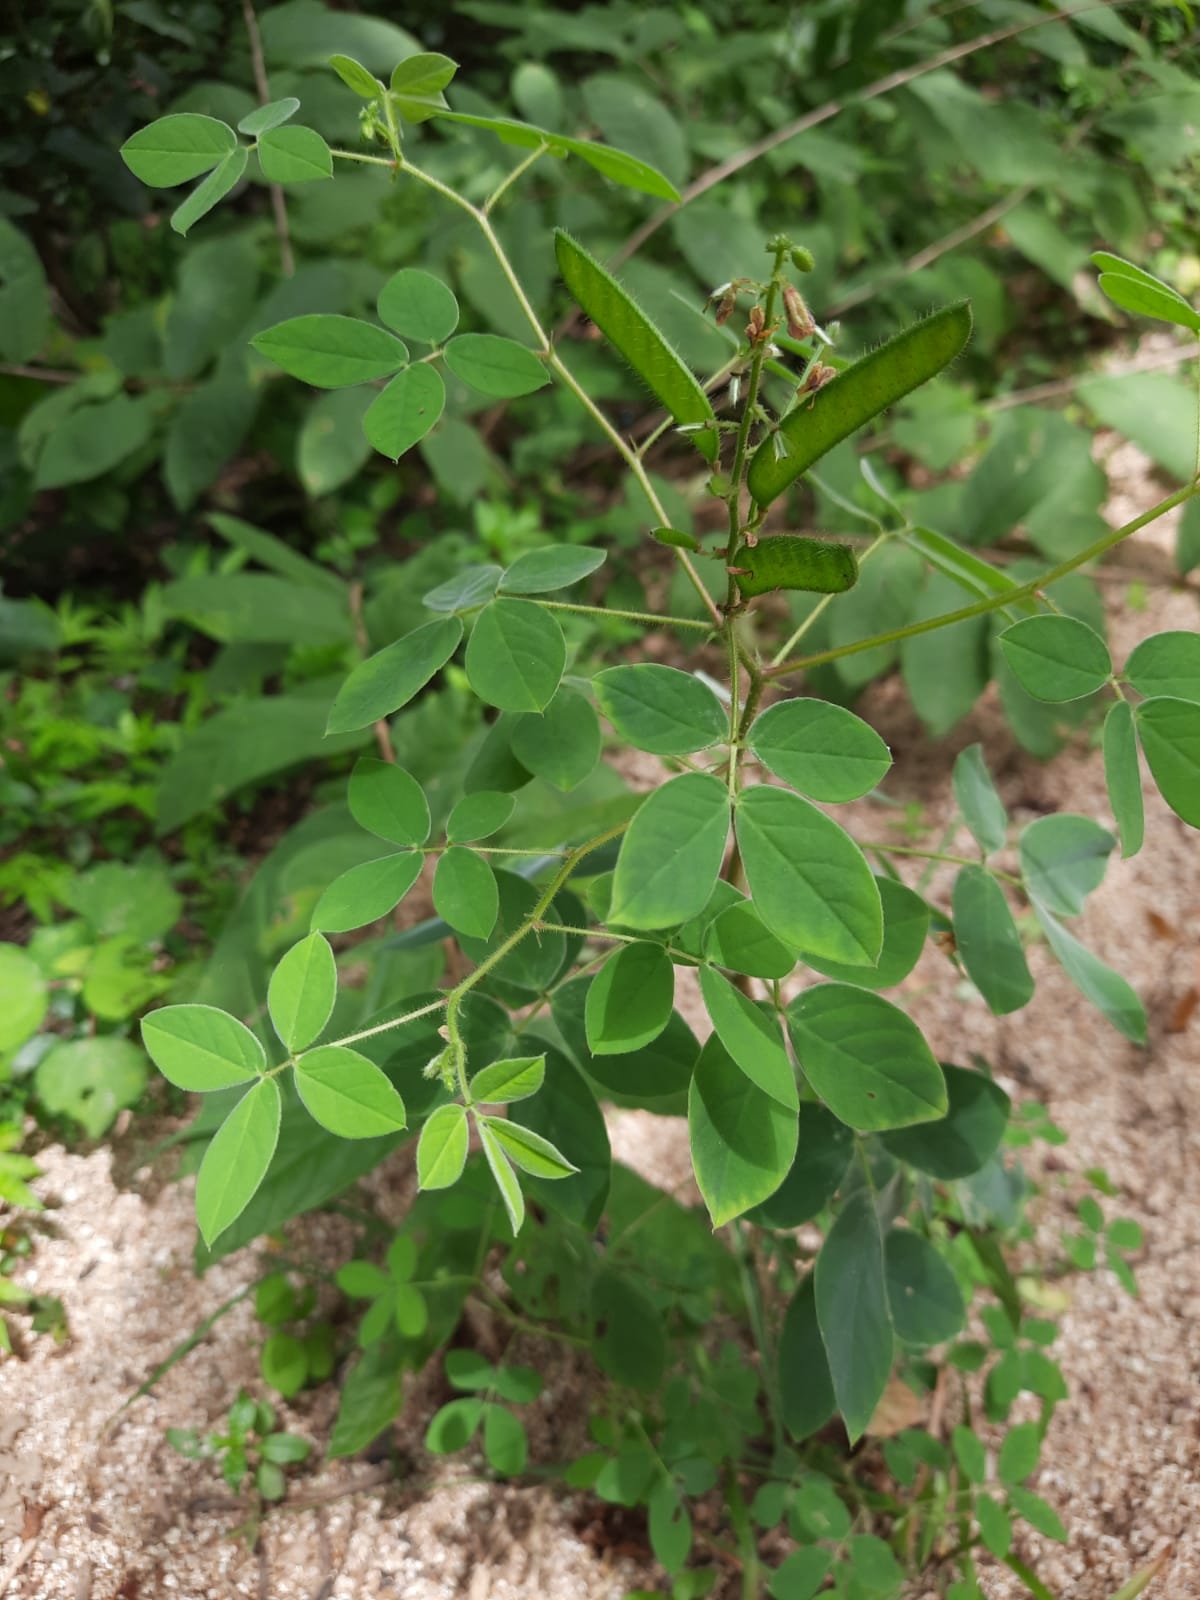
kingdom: Plantae
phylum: Tracheophyta
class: Magnoliopsida
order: Fabales
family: Fabaceae
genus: Chamaecrista
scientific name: Chamaecrista absus
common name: Tropical sensitive pea
